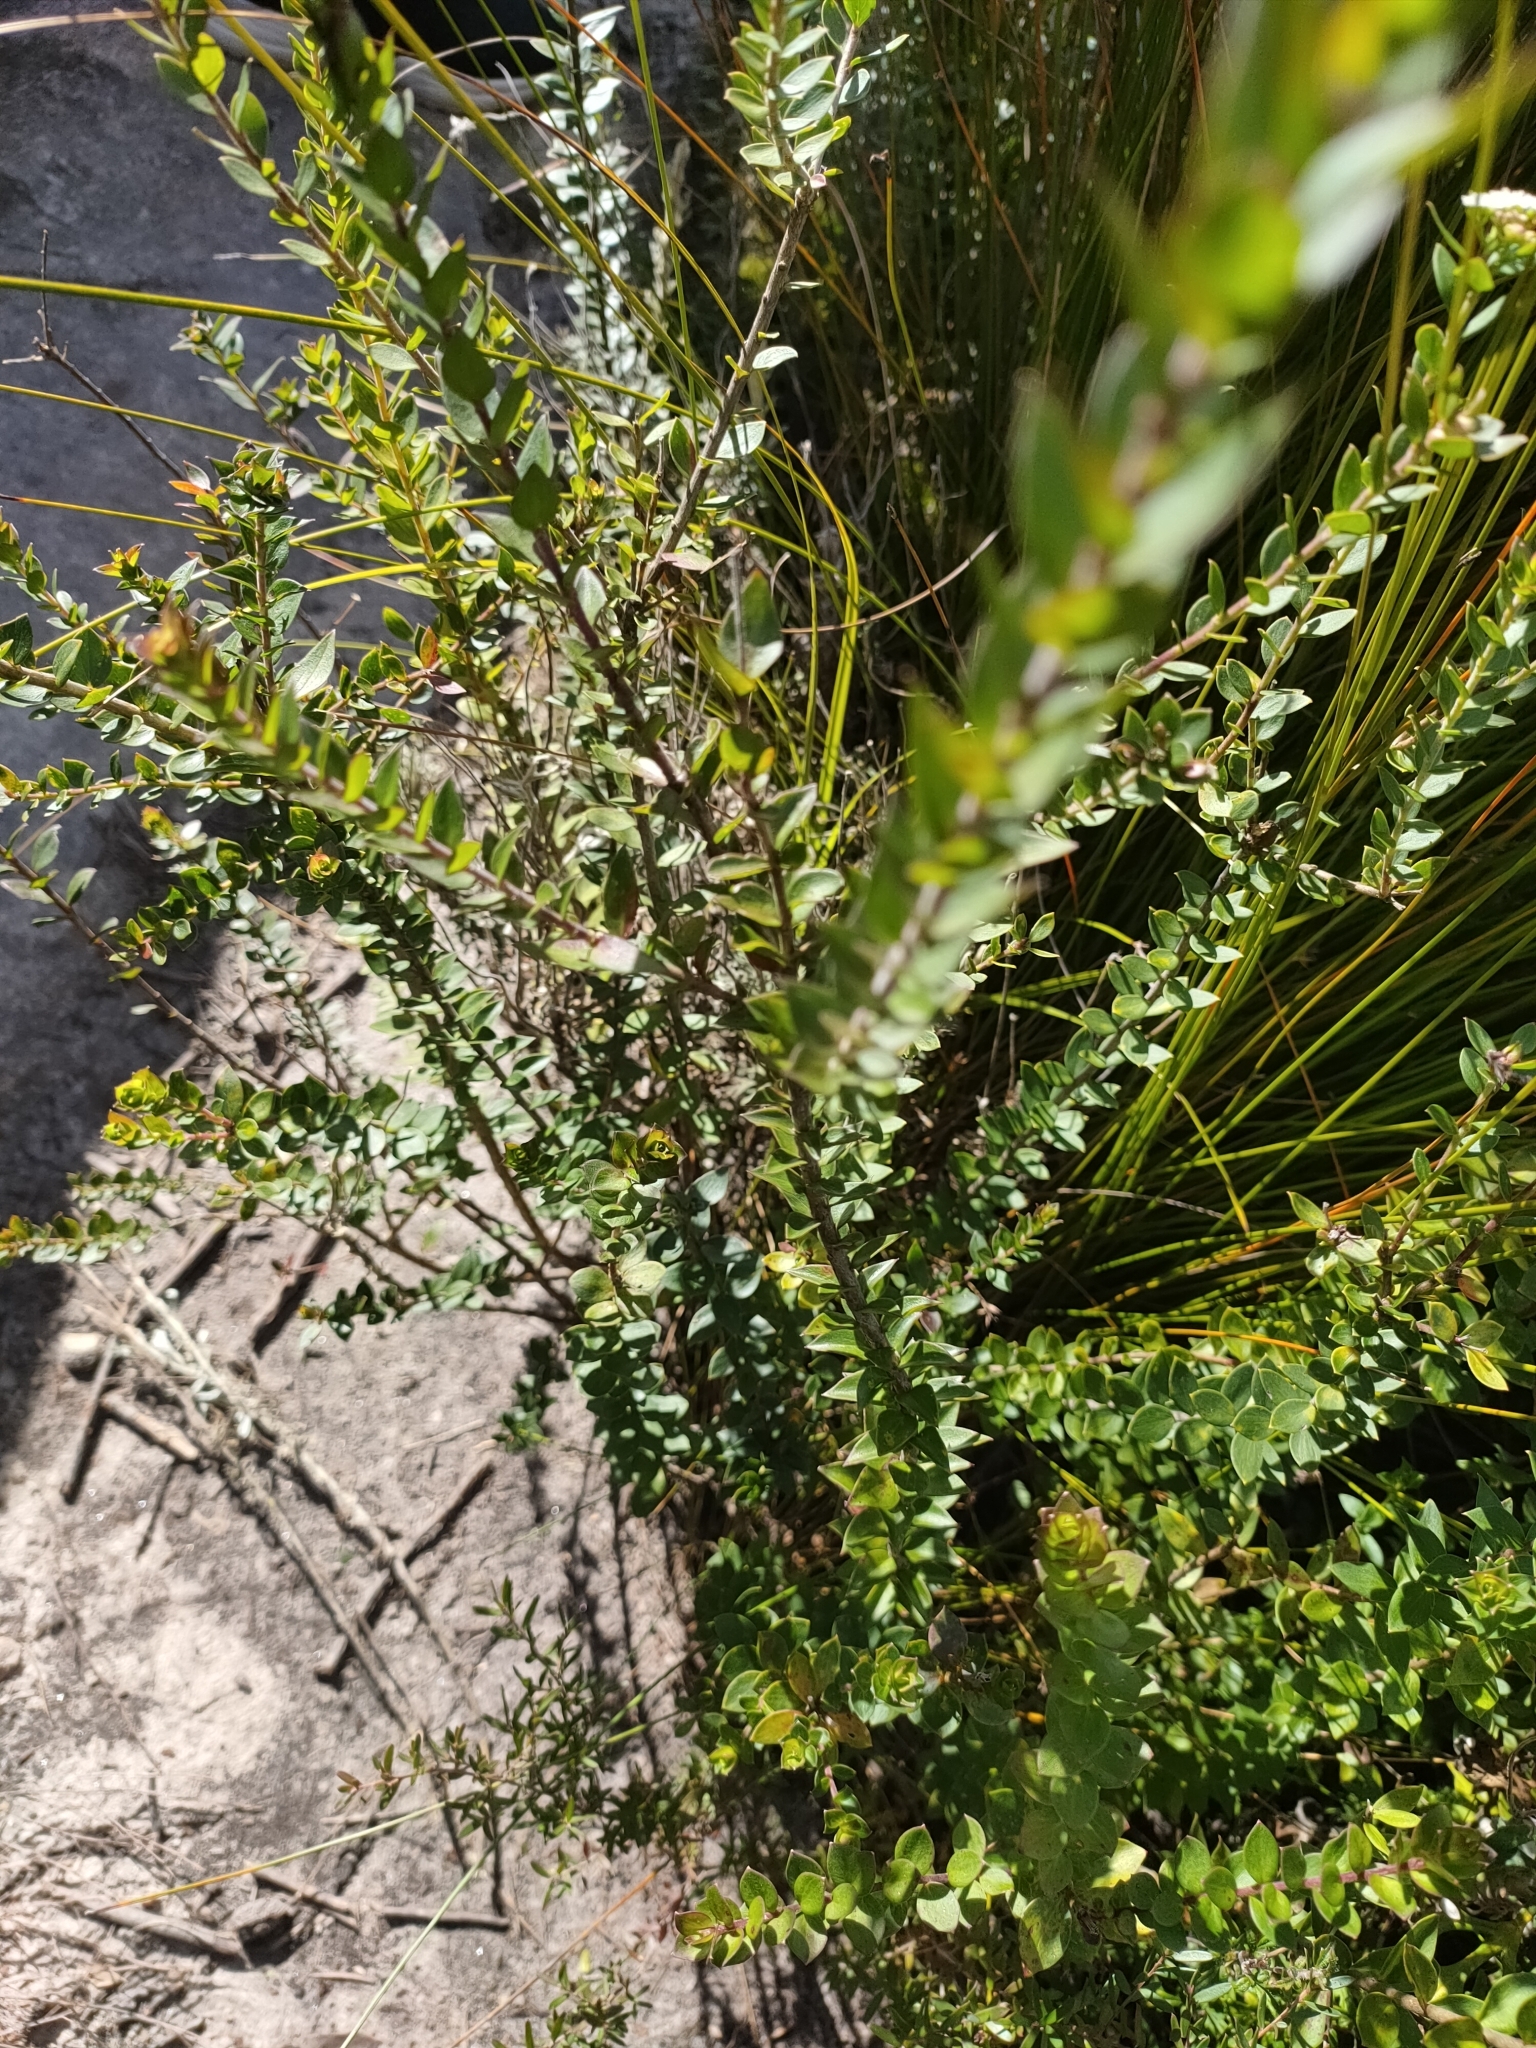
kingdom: Plantae
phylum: Tracheophyta
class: Magnoliopsida
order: Apiales
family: Apiaceae
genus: Platysace
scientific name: Platysace lanceolata
